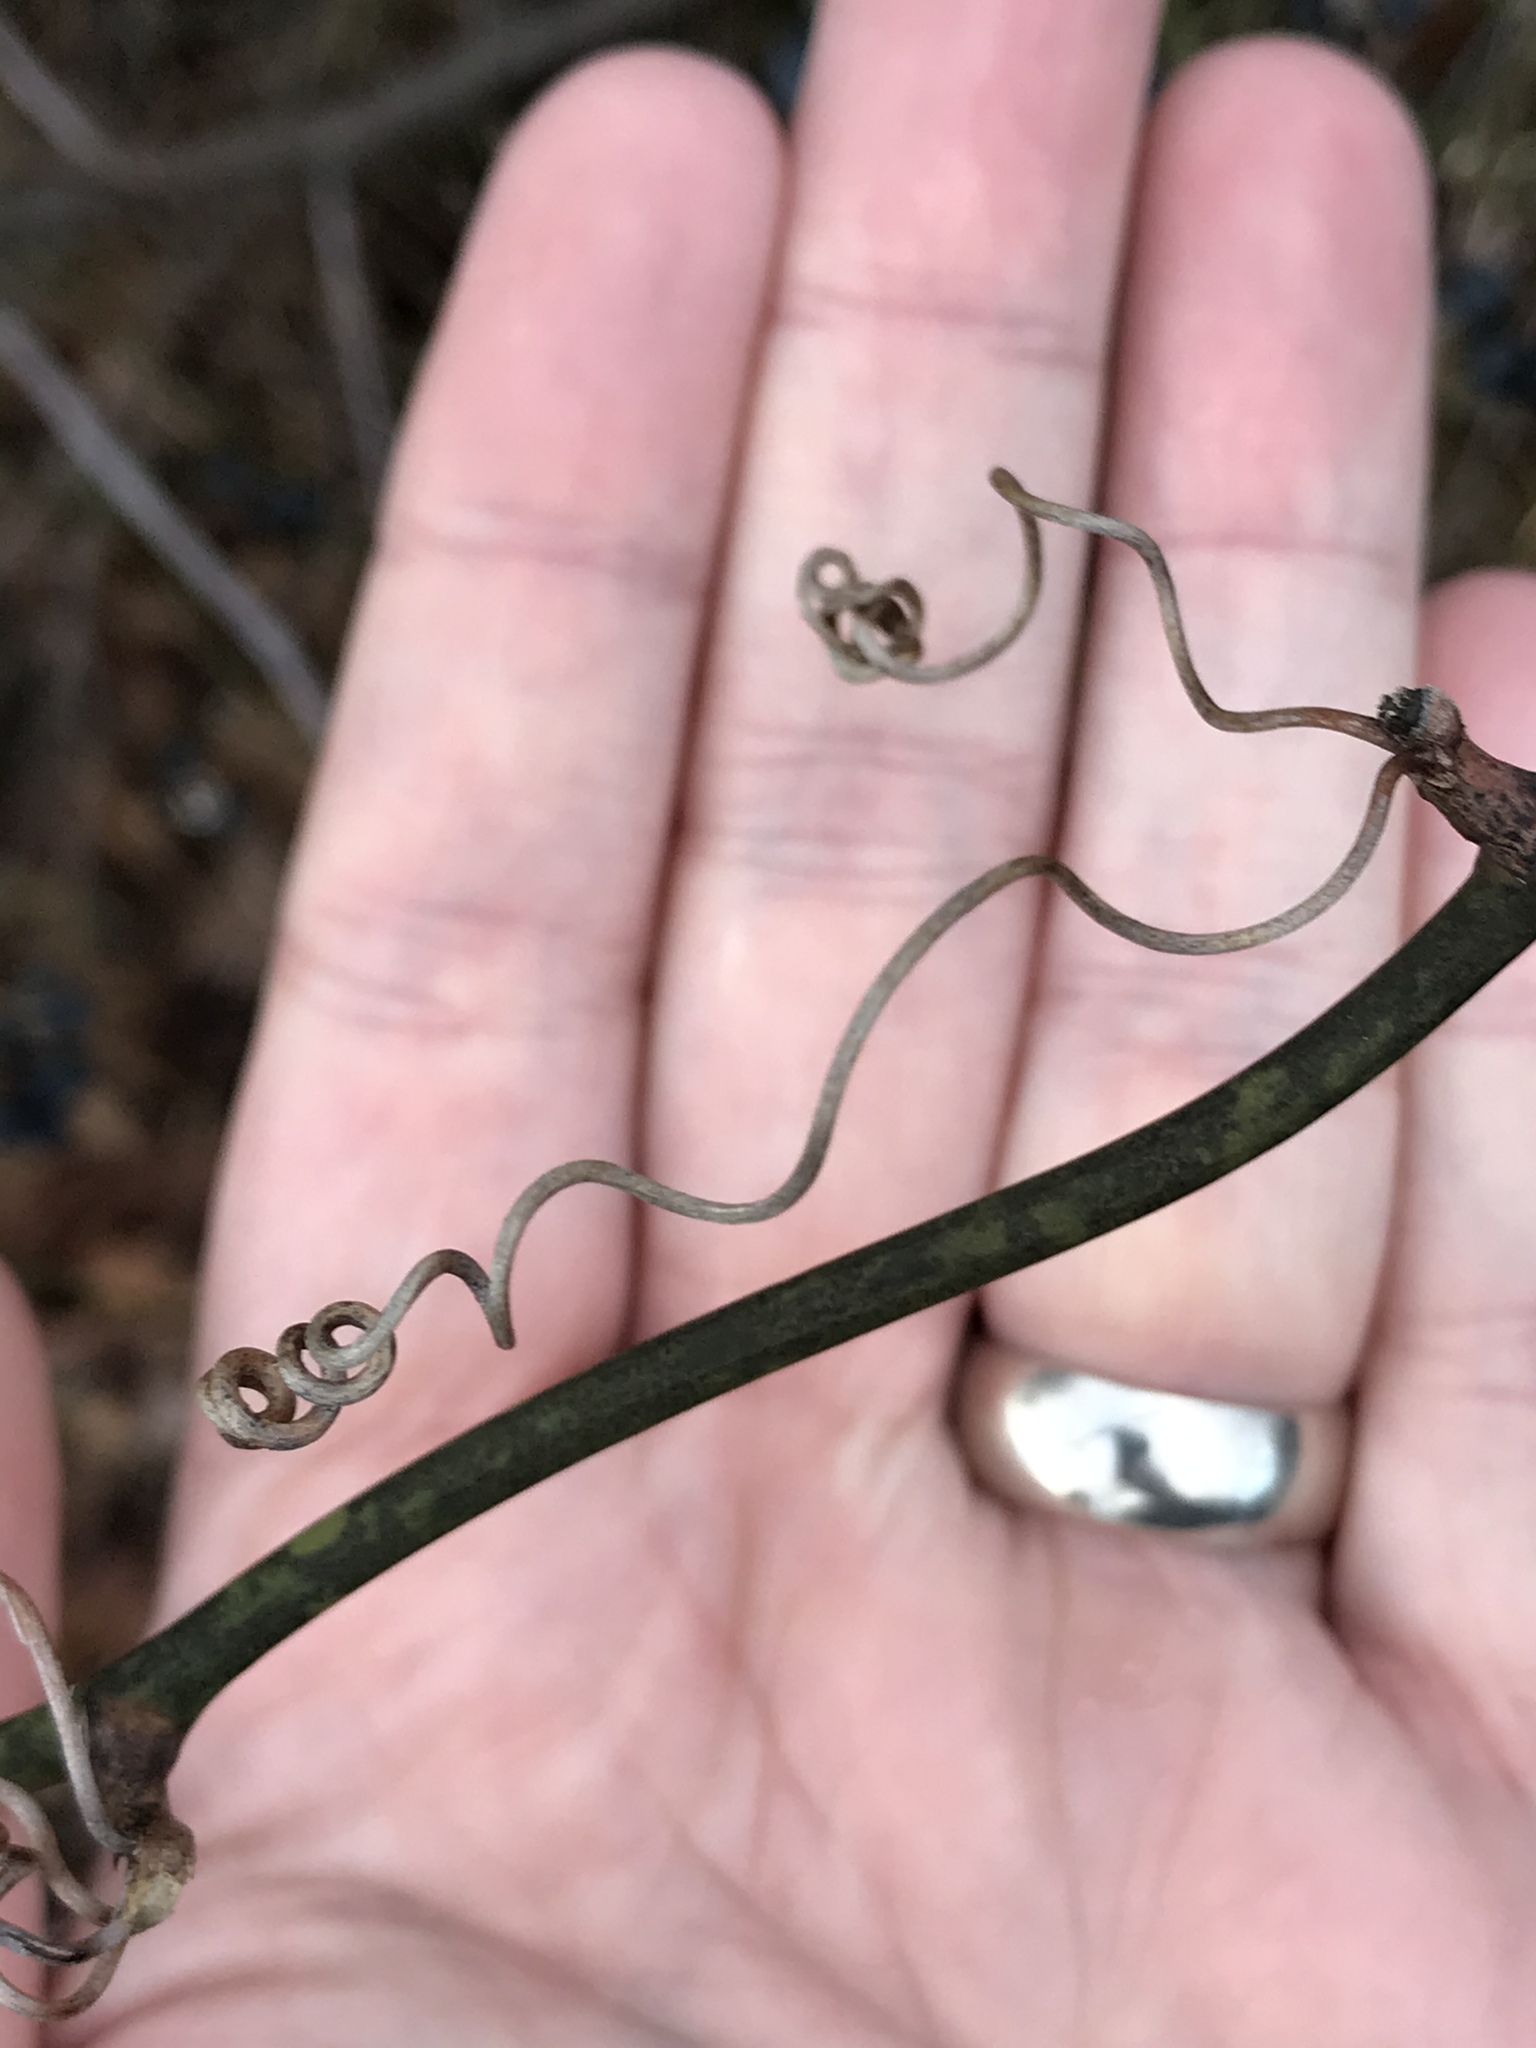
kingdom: Plantae
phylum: Tracheophyta
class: Liliopsida
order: Liliales
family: Smilacaceae
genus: Smilax
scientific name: Smilax rotundifolia
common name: Bullbriar
